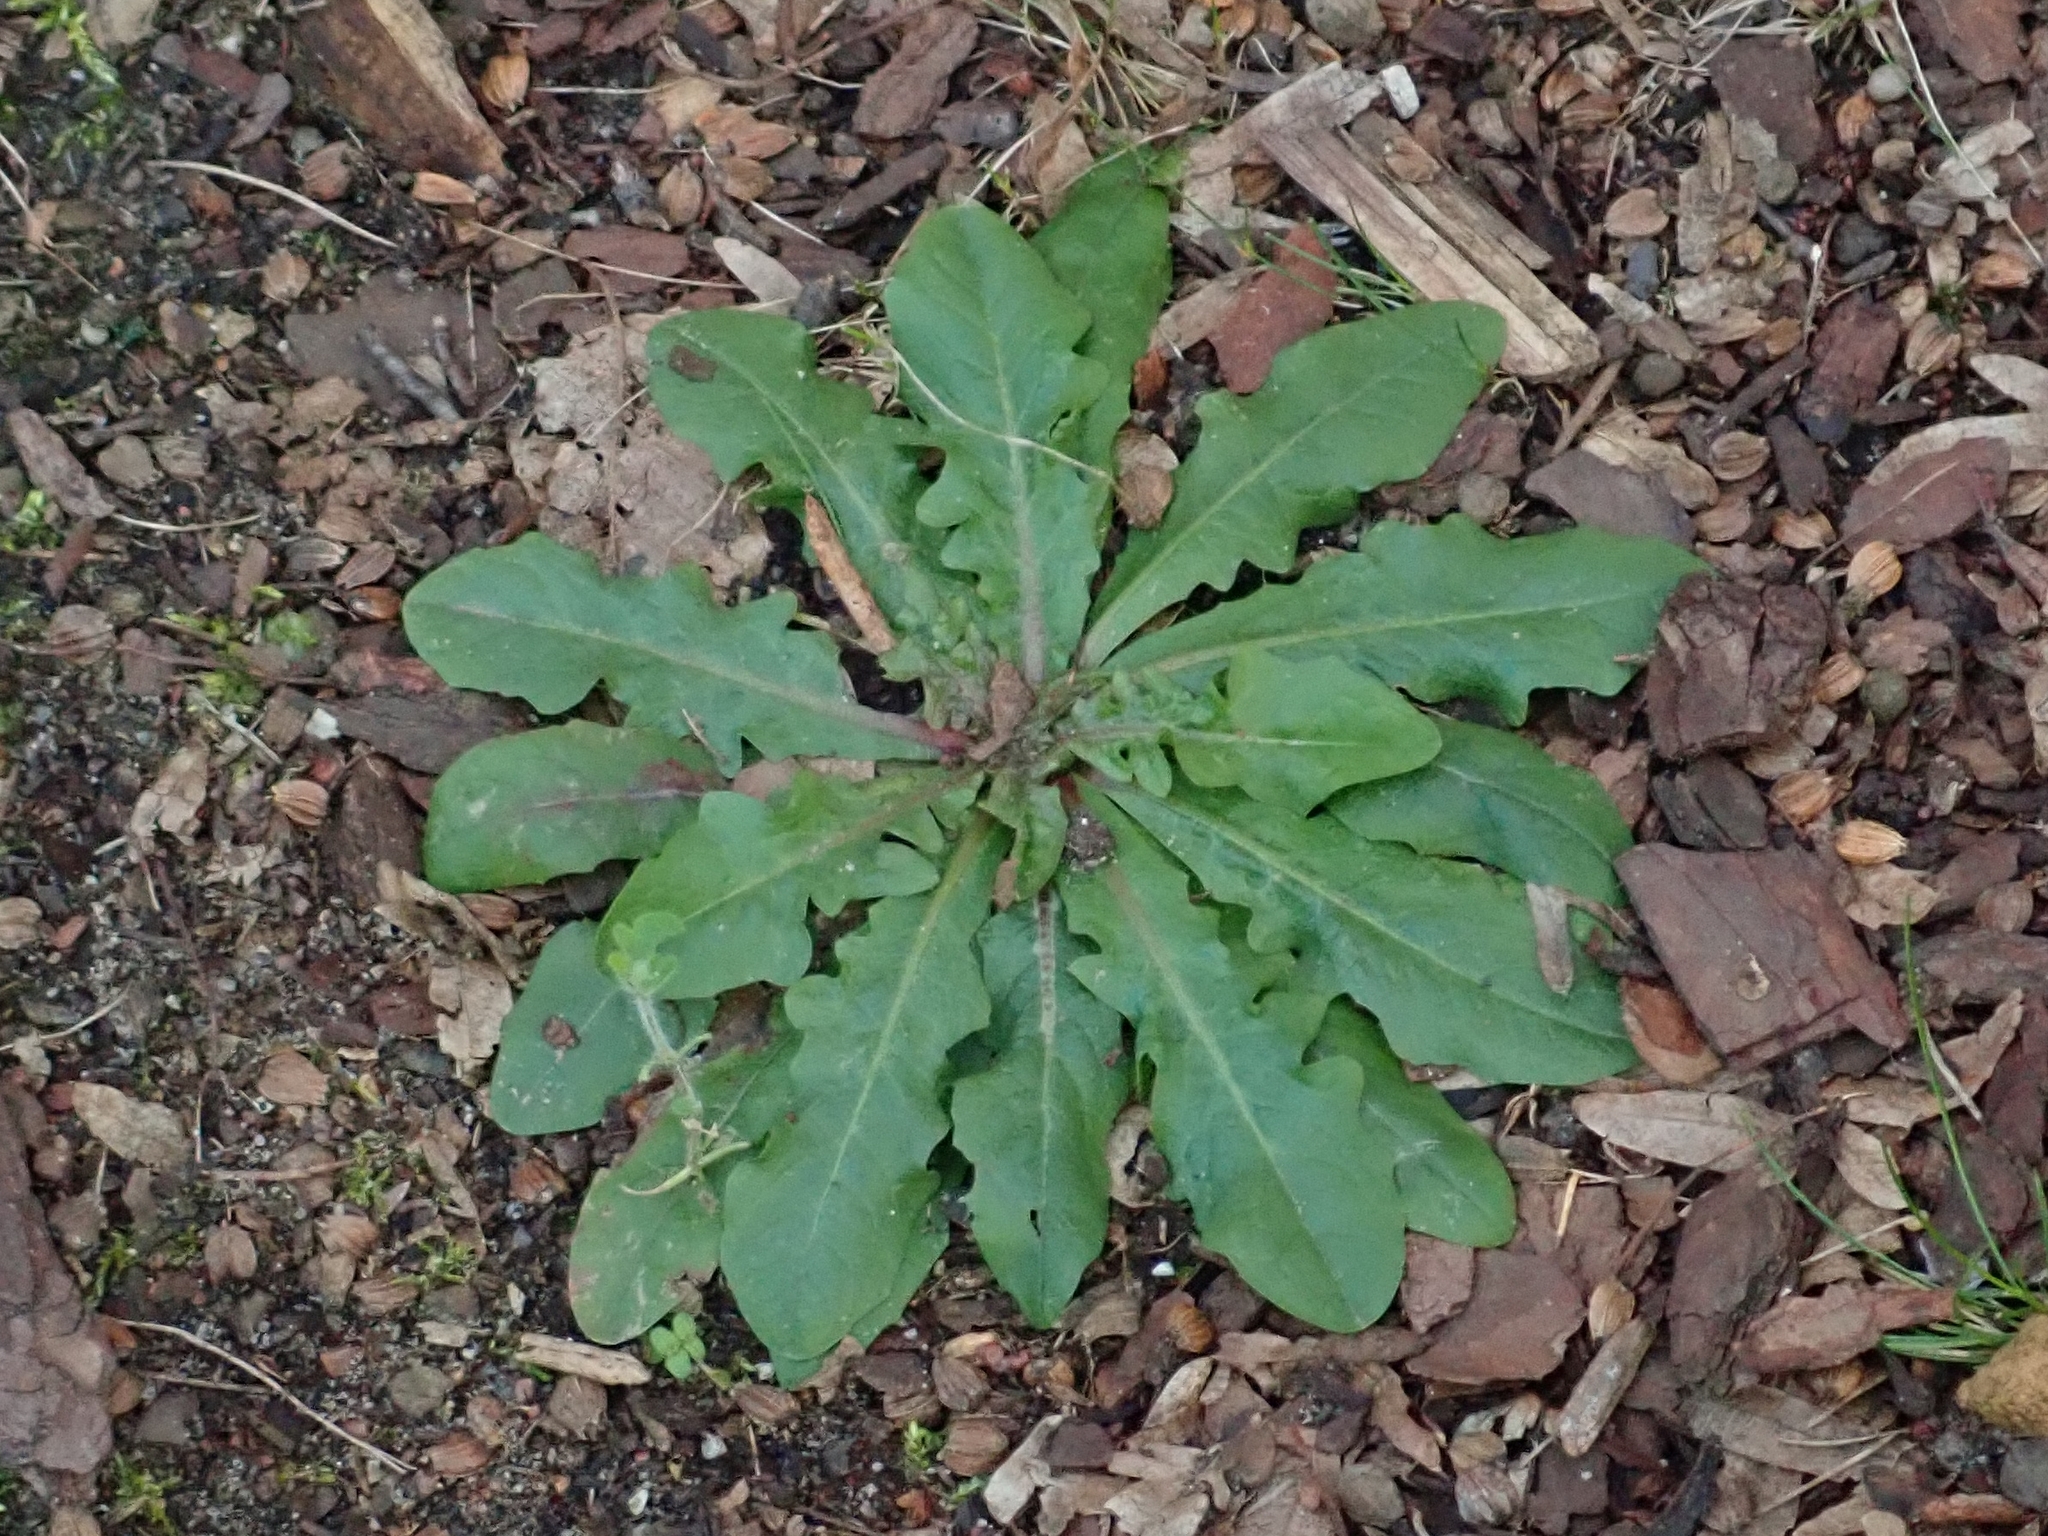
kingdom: Plantae
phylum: Tracheophyta
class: Magnoliopsida
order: Asterales
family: Asteraceae
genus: Hypochaeris
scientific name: Hypochaeris radicata
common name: Flatweed
